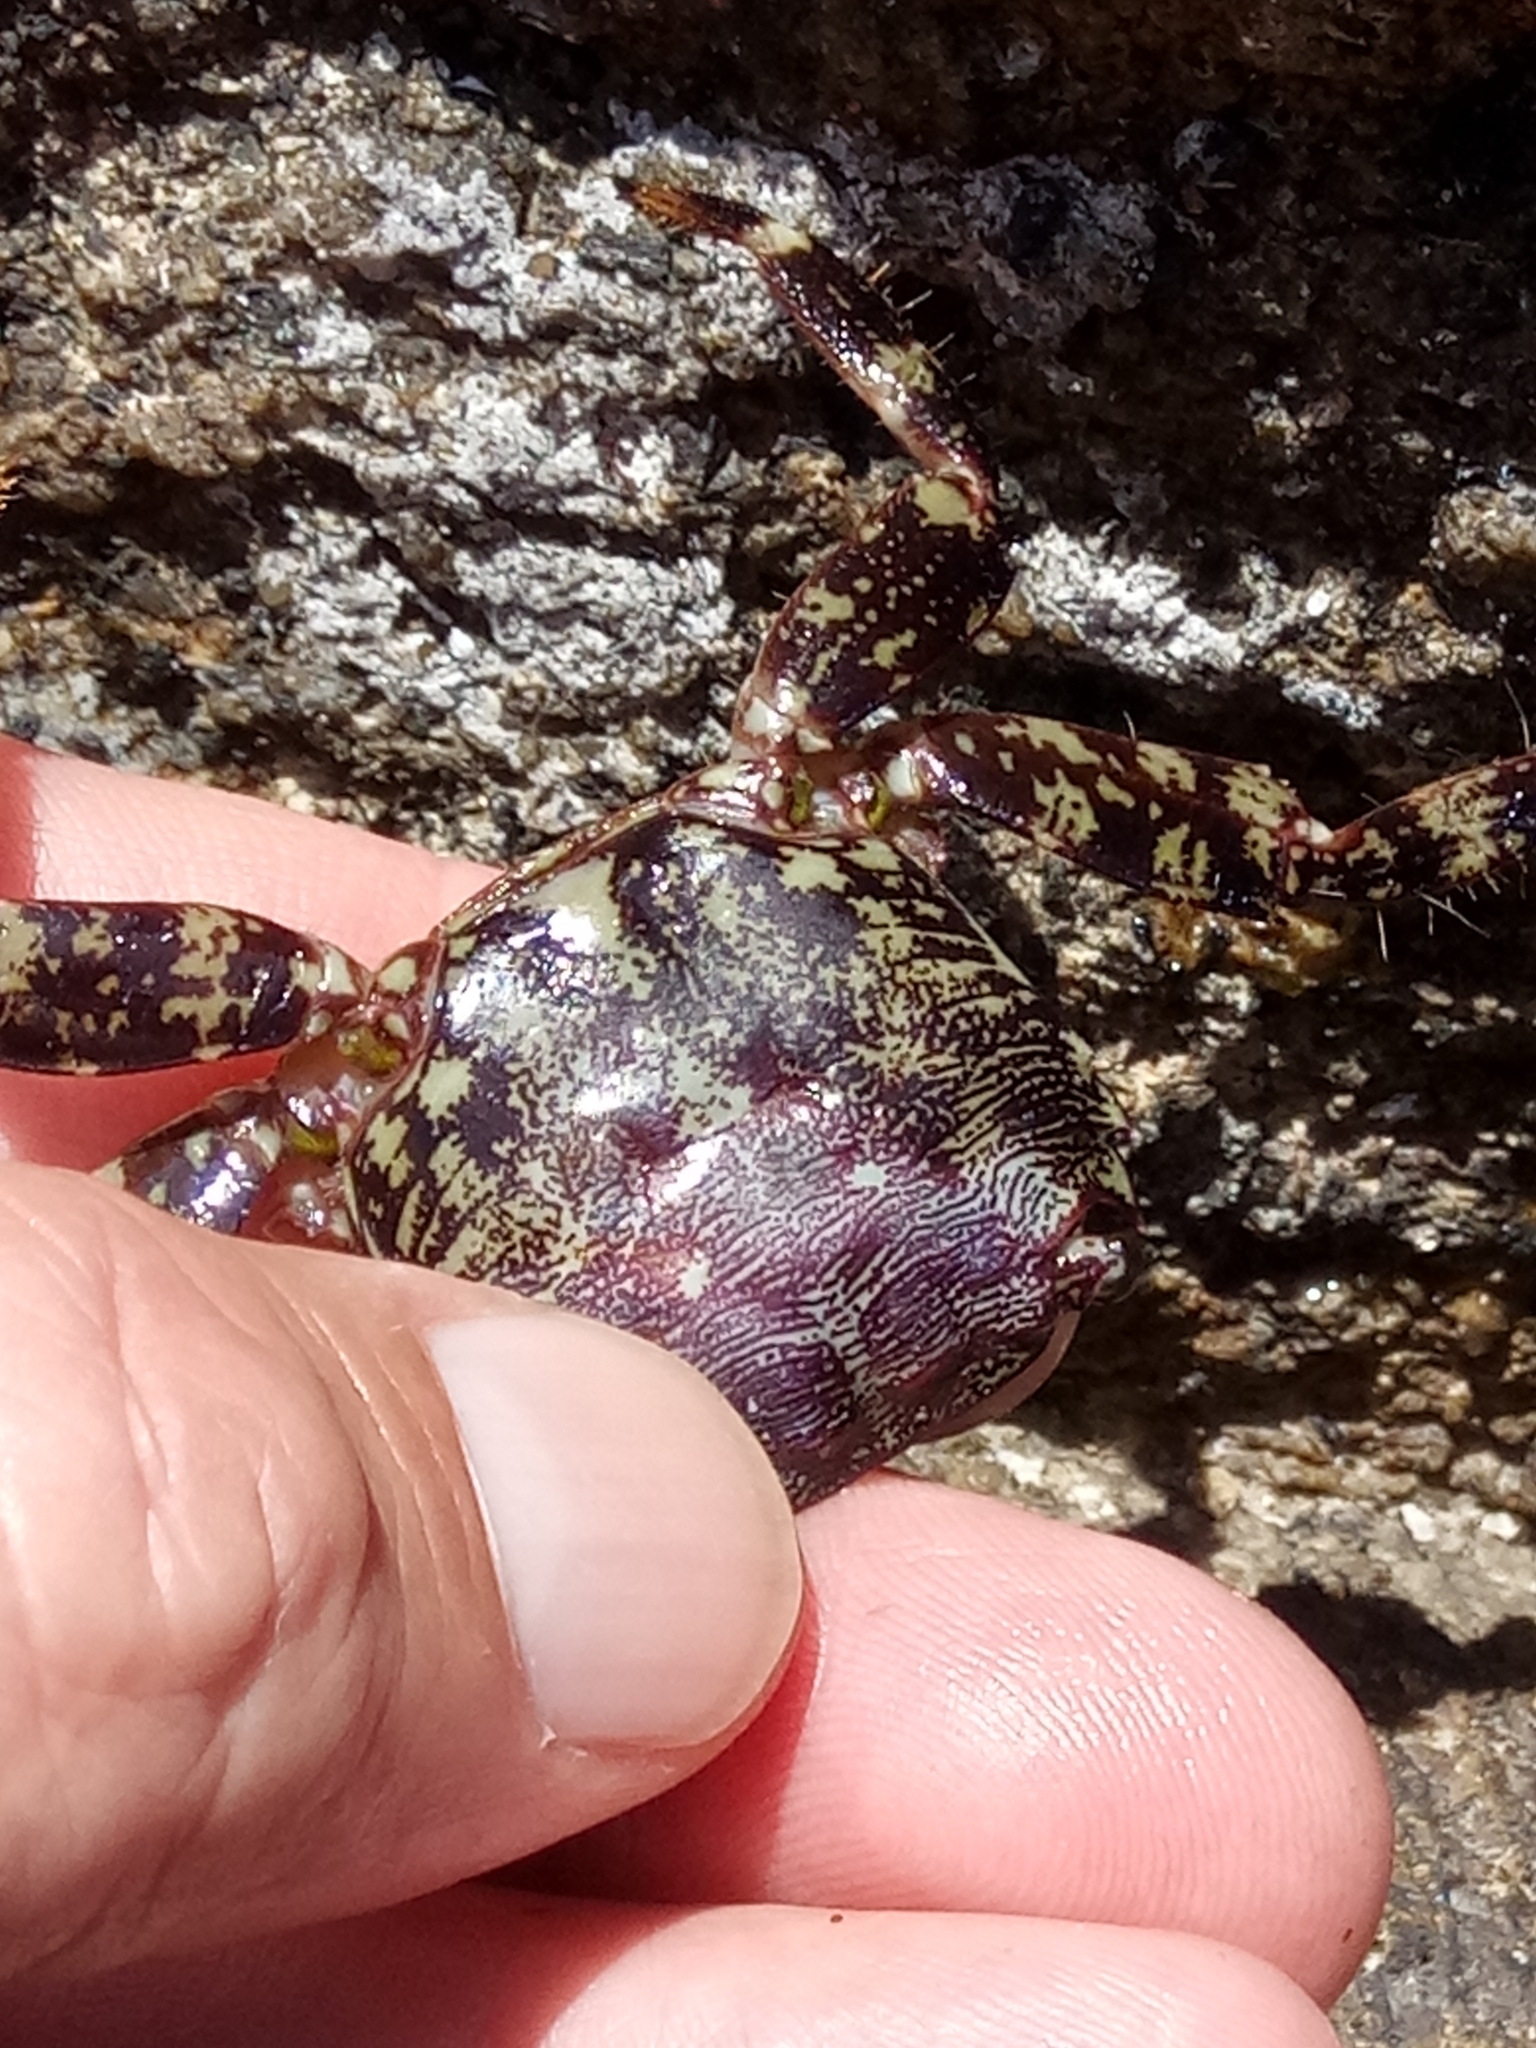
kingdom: Animalia
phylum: Arthropoda
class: Malacostraca
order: Decapoda
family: Grapsidae
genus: Pachygrapsus
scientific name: Pachygrapsus marmoratus
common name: Marbled rock crab
